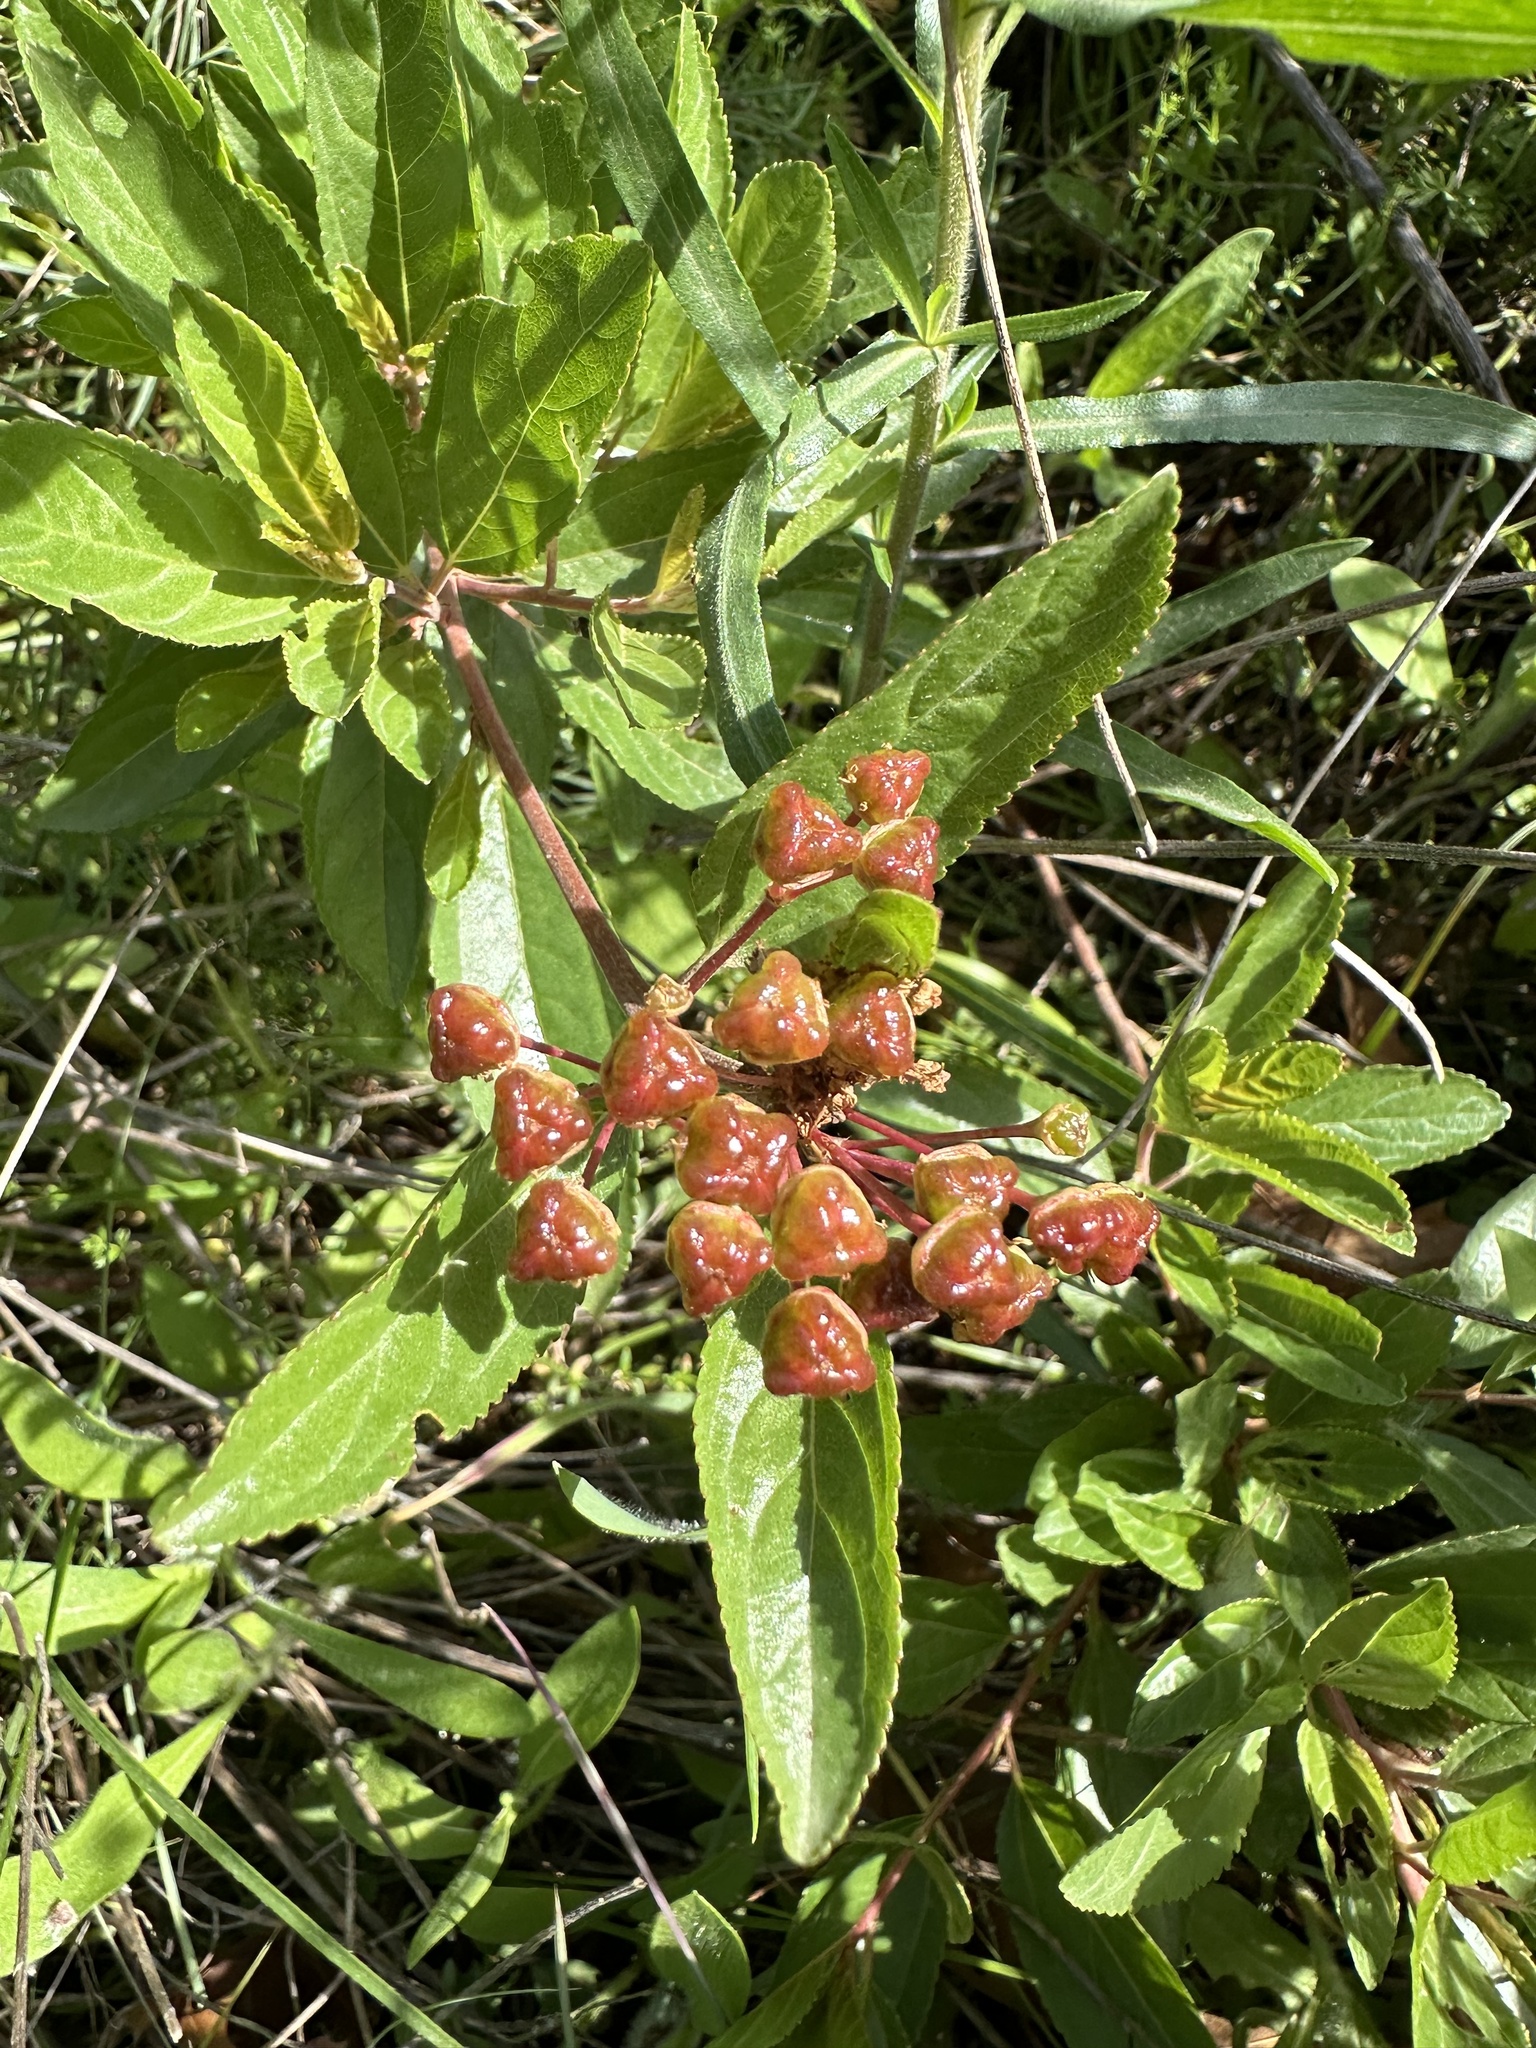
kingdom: Plantae
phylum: Tracheophyta
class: Magnoliopsida
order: Rosales
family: Rhamnaceae
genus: Ceanothus
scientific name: Ceanothus herbaceus
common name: Inland ceanothus
